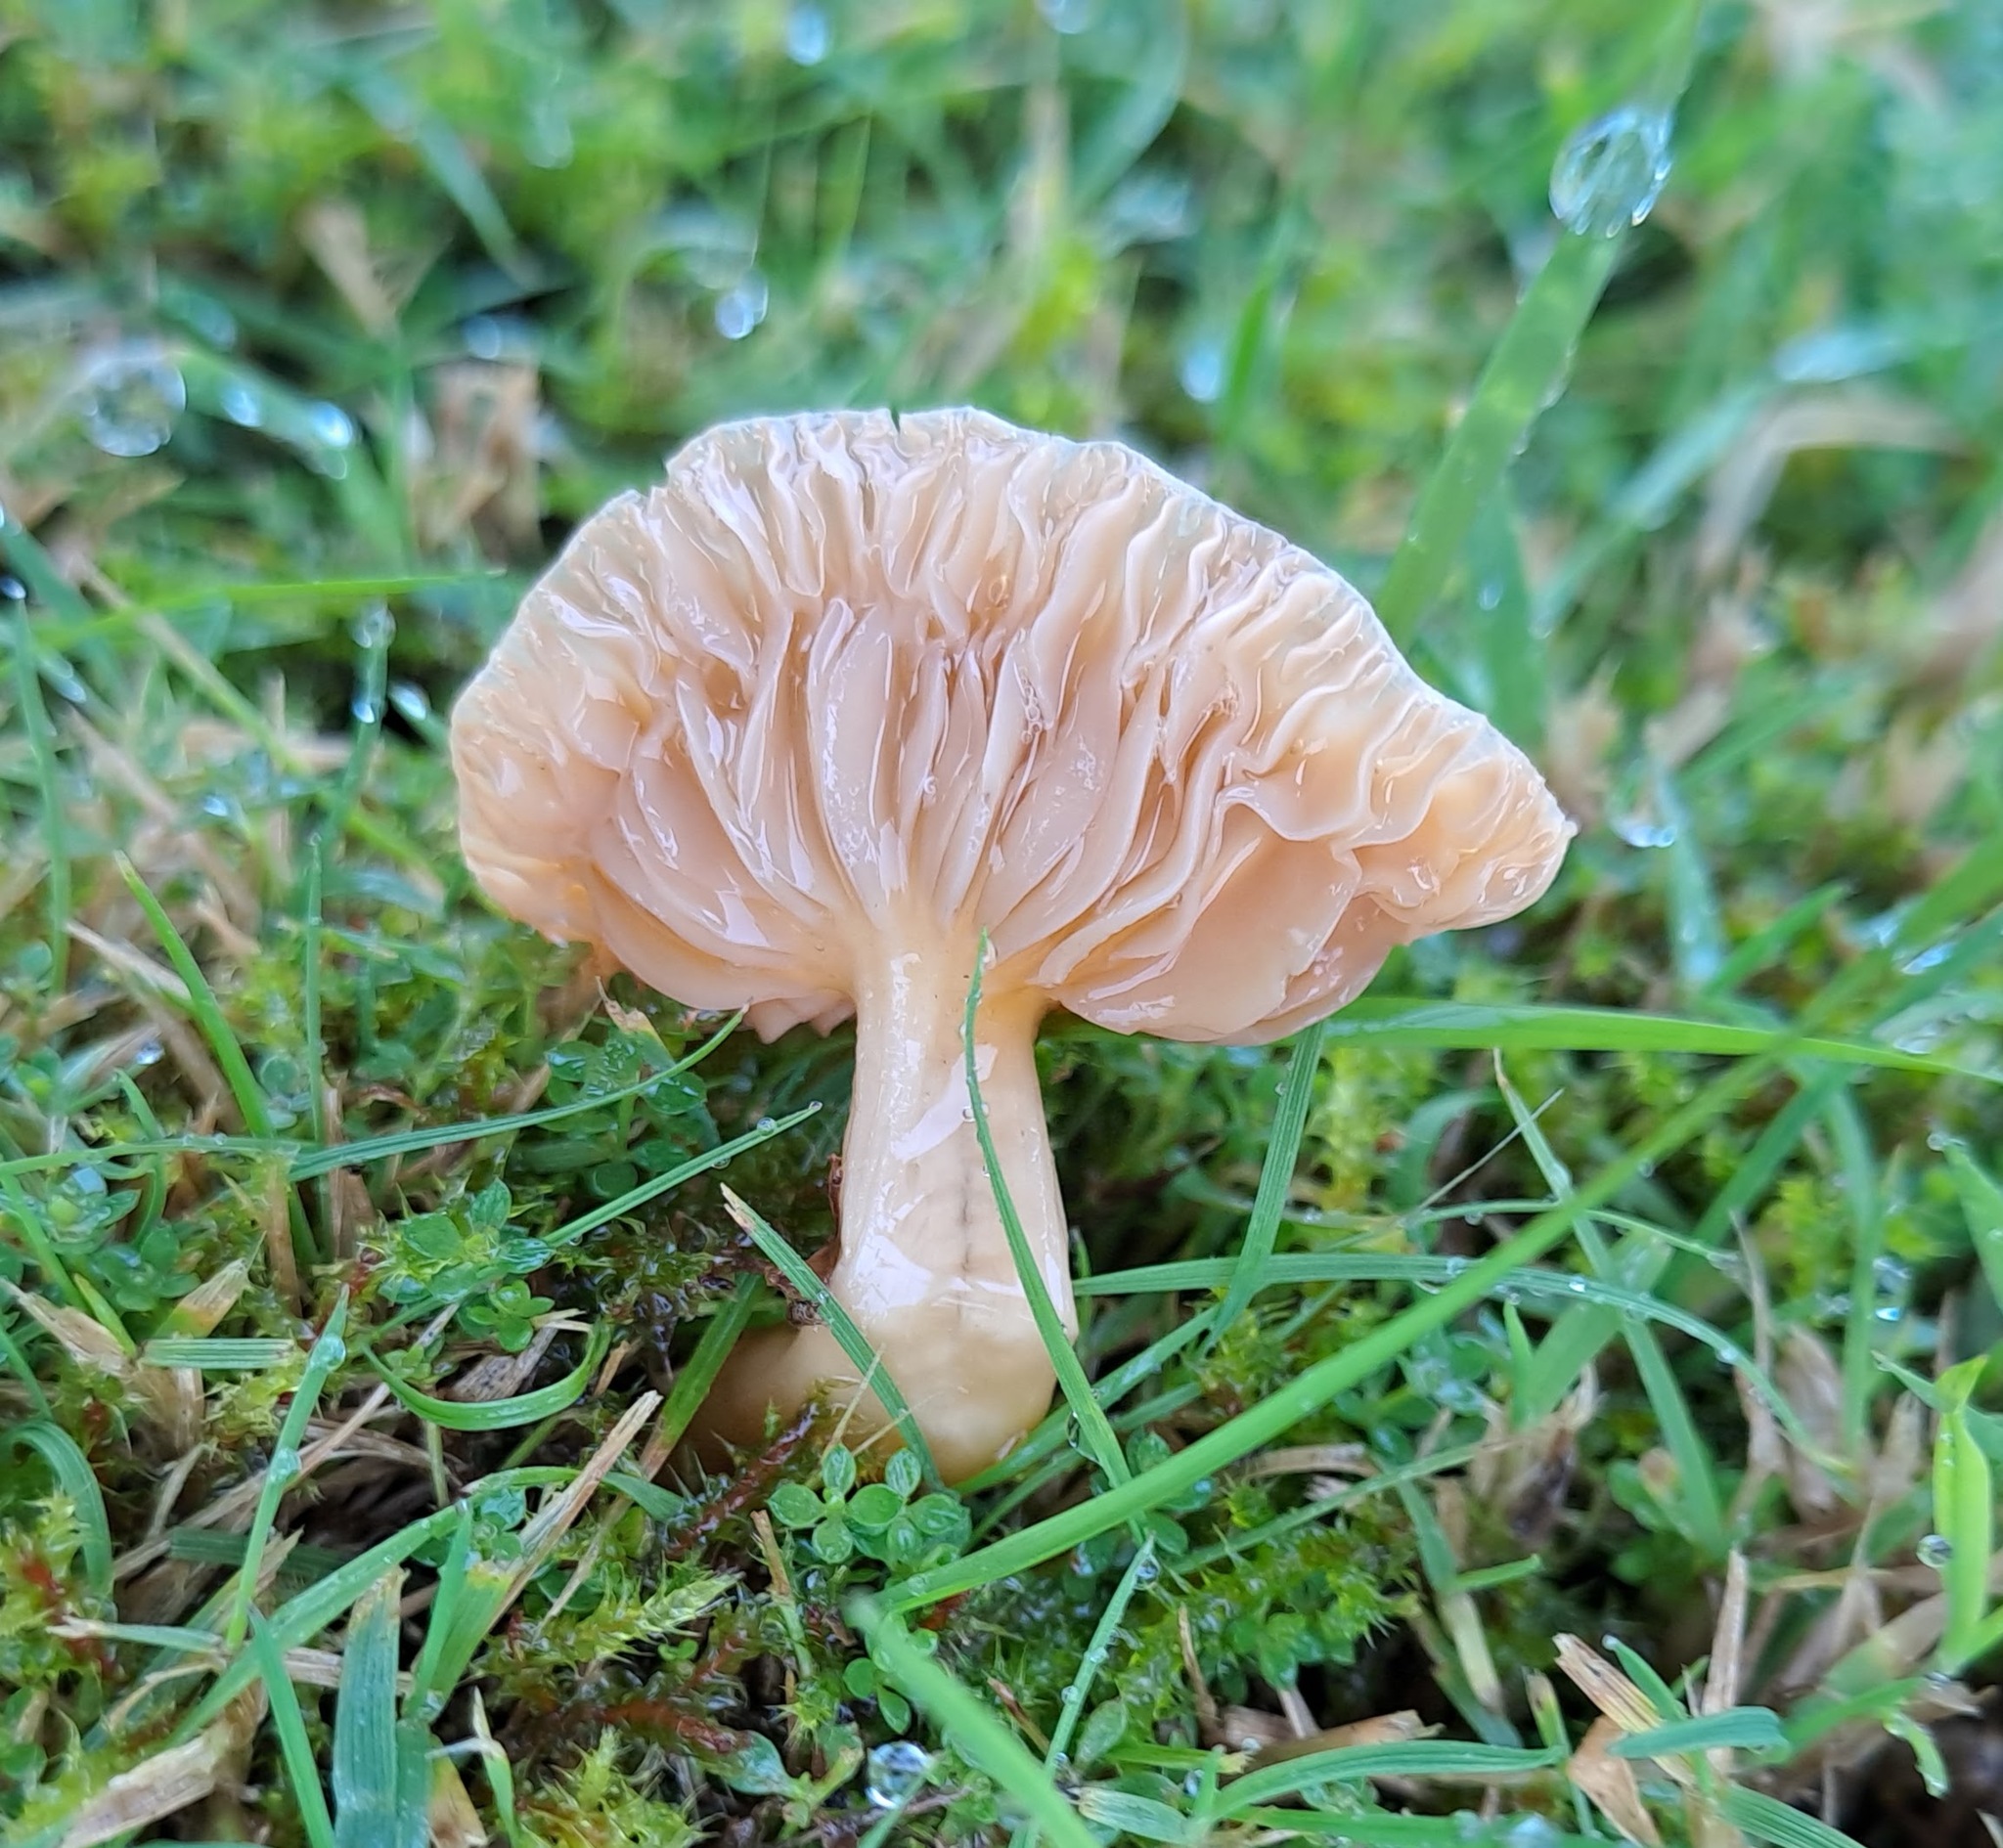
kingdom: Fungi
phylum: Basidiomycota
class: Agaricomycetes
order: Agaricales
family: Hygrophoraceae
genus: Cuphophyllus
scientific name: Cuphophyllus pratensis
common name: Meadow waxcap
